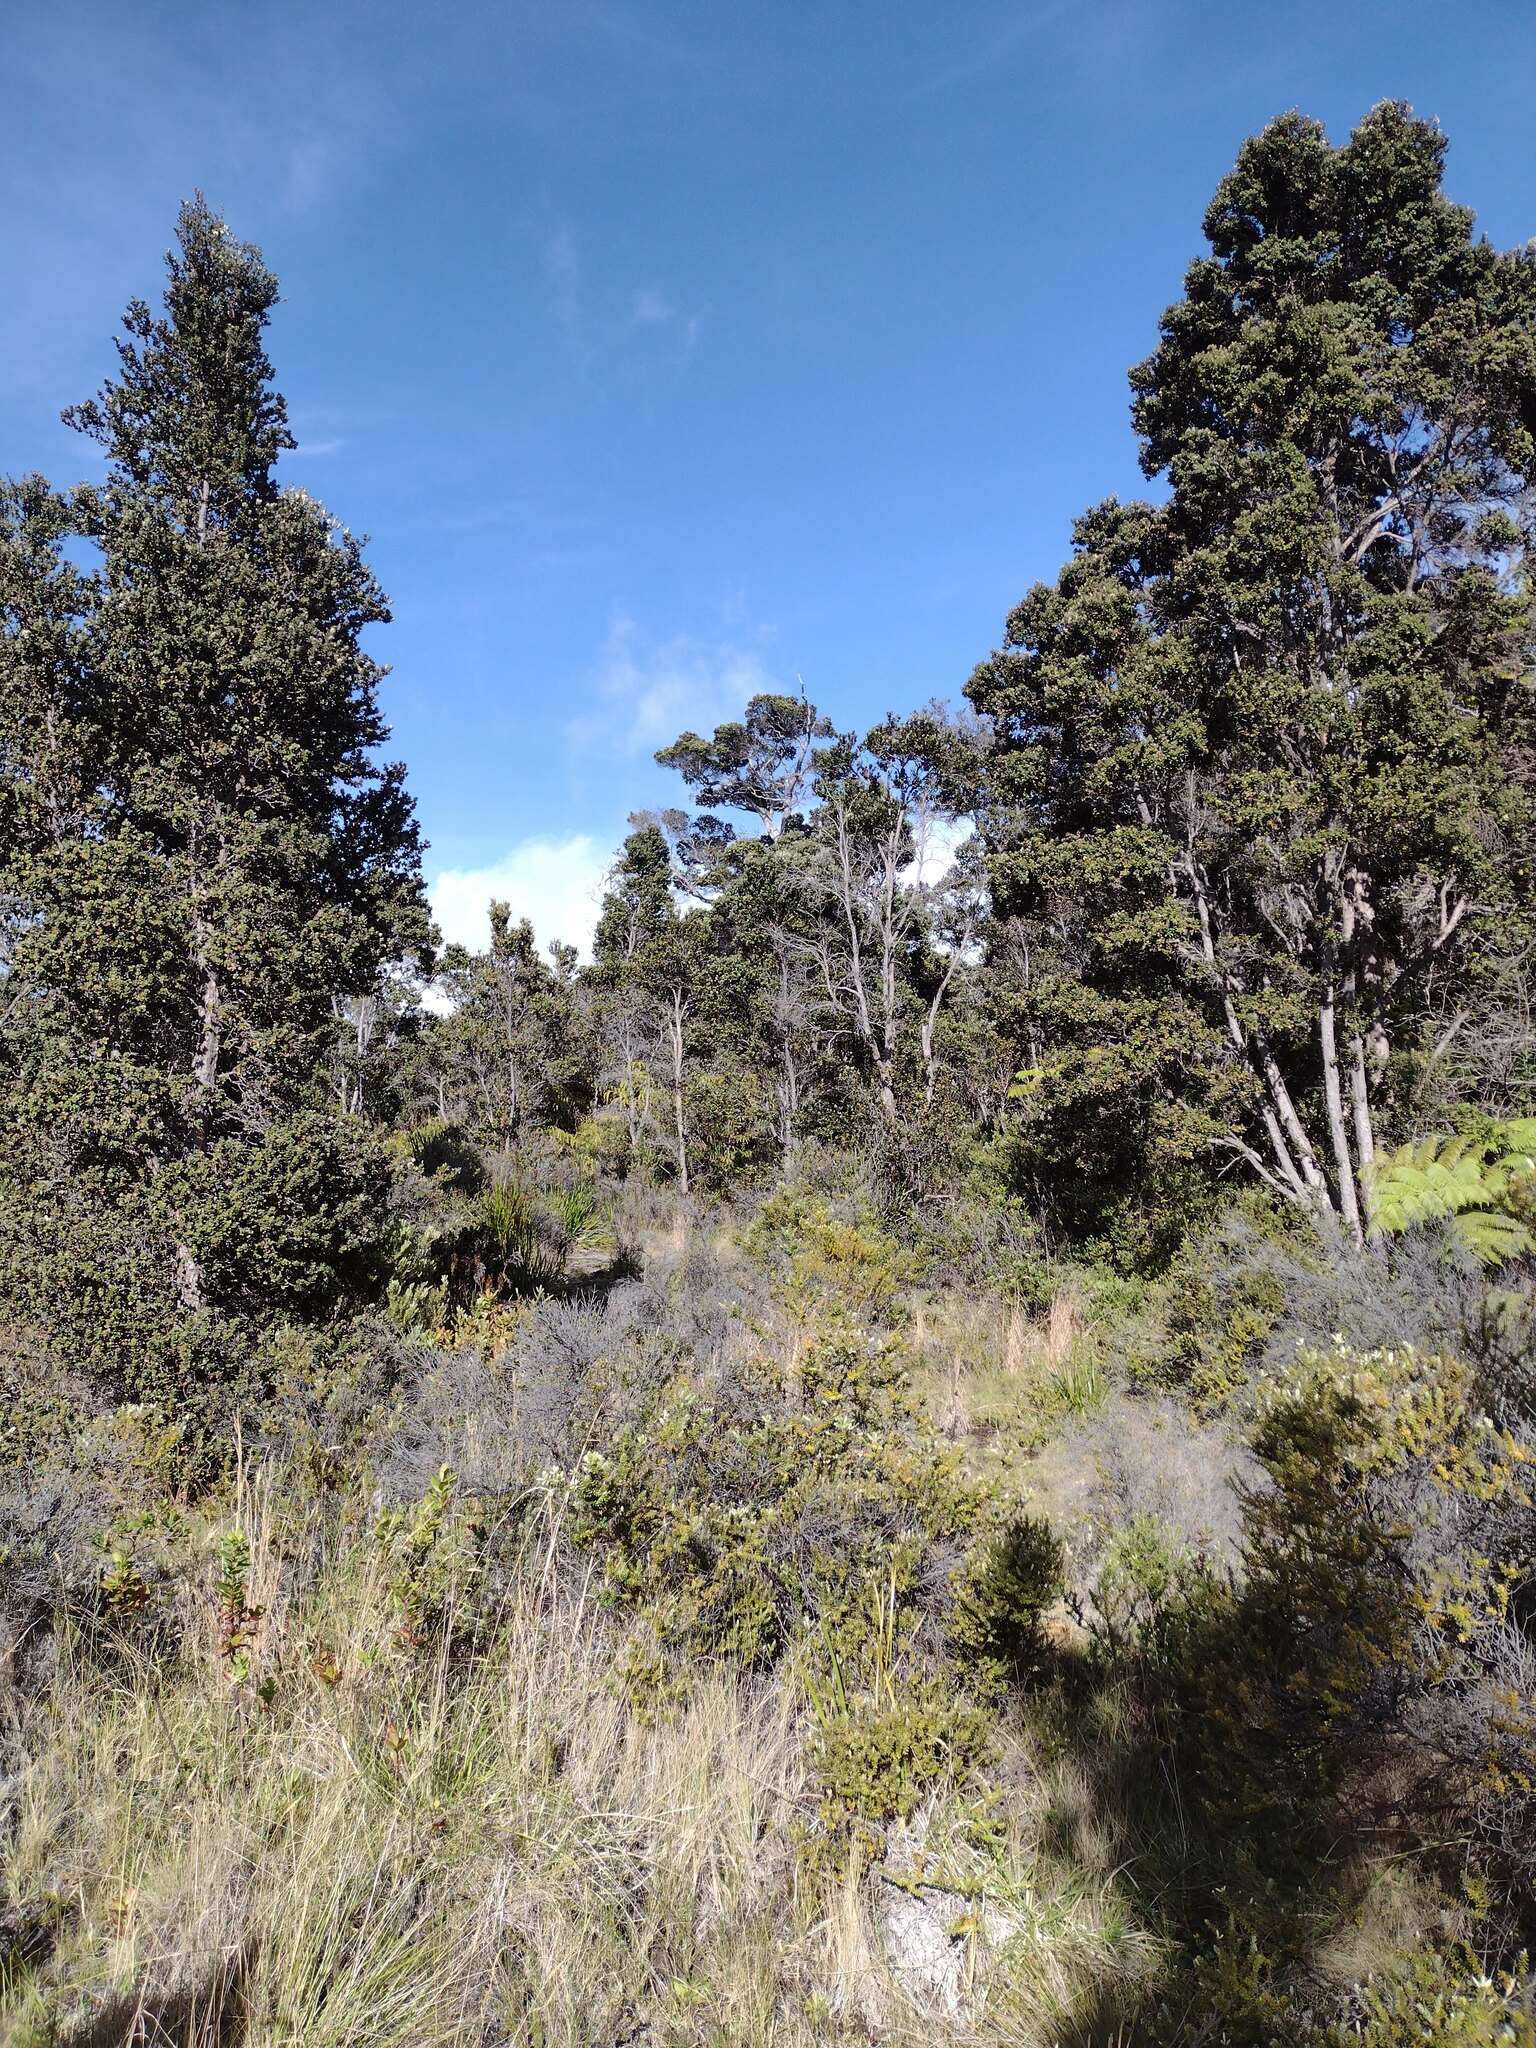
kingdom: Plantae
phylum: Tracheophyta
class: Magnoliopsida
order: Myrtales
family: Myrtaceae
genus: Metrosideros
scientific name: Metrosideros polymorpha
